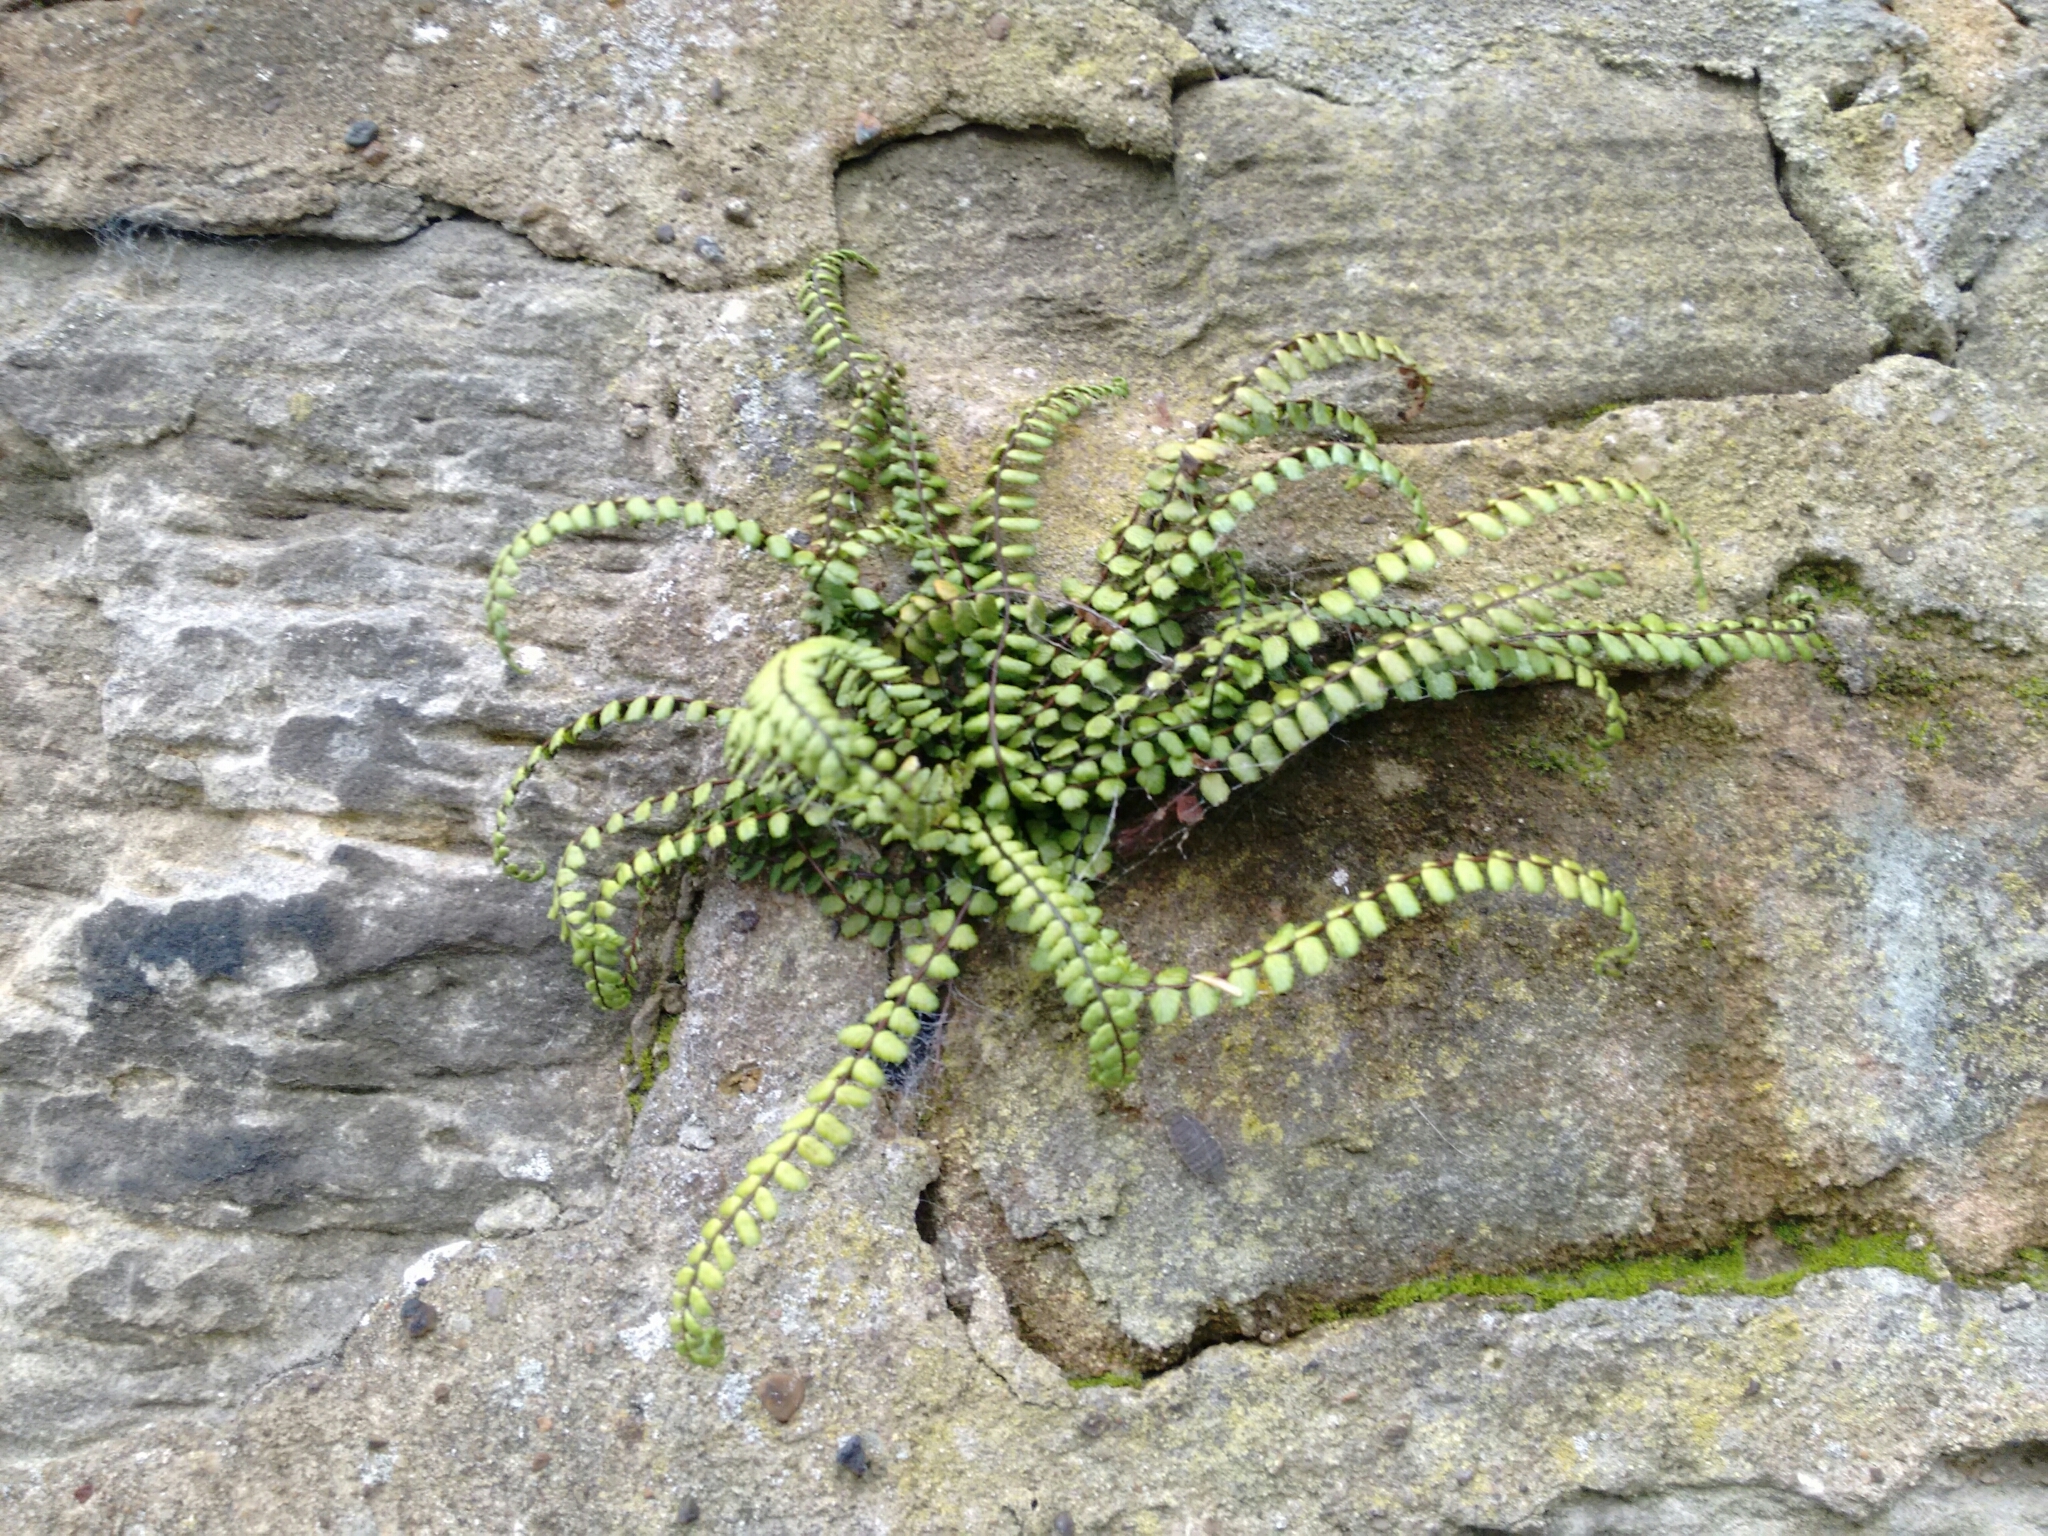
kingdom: Plantae
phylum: Tracheophyta
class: Polypodiopsida
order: Polypodiales
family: Aspleniaceae
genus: Asplenium
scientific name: Asplenium trichomanes
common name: Maidenhair spleenwort
